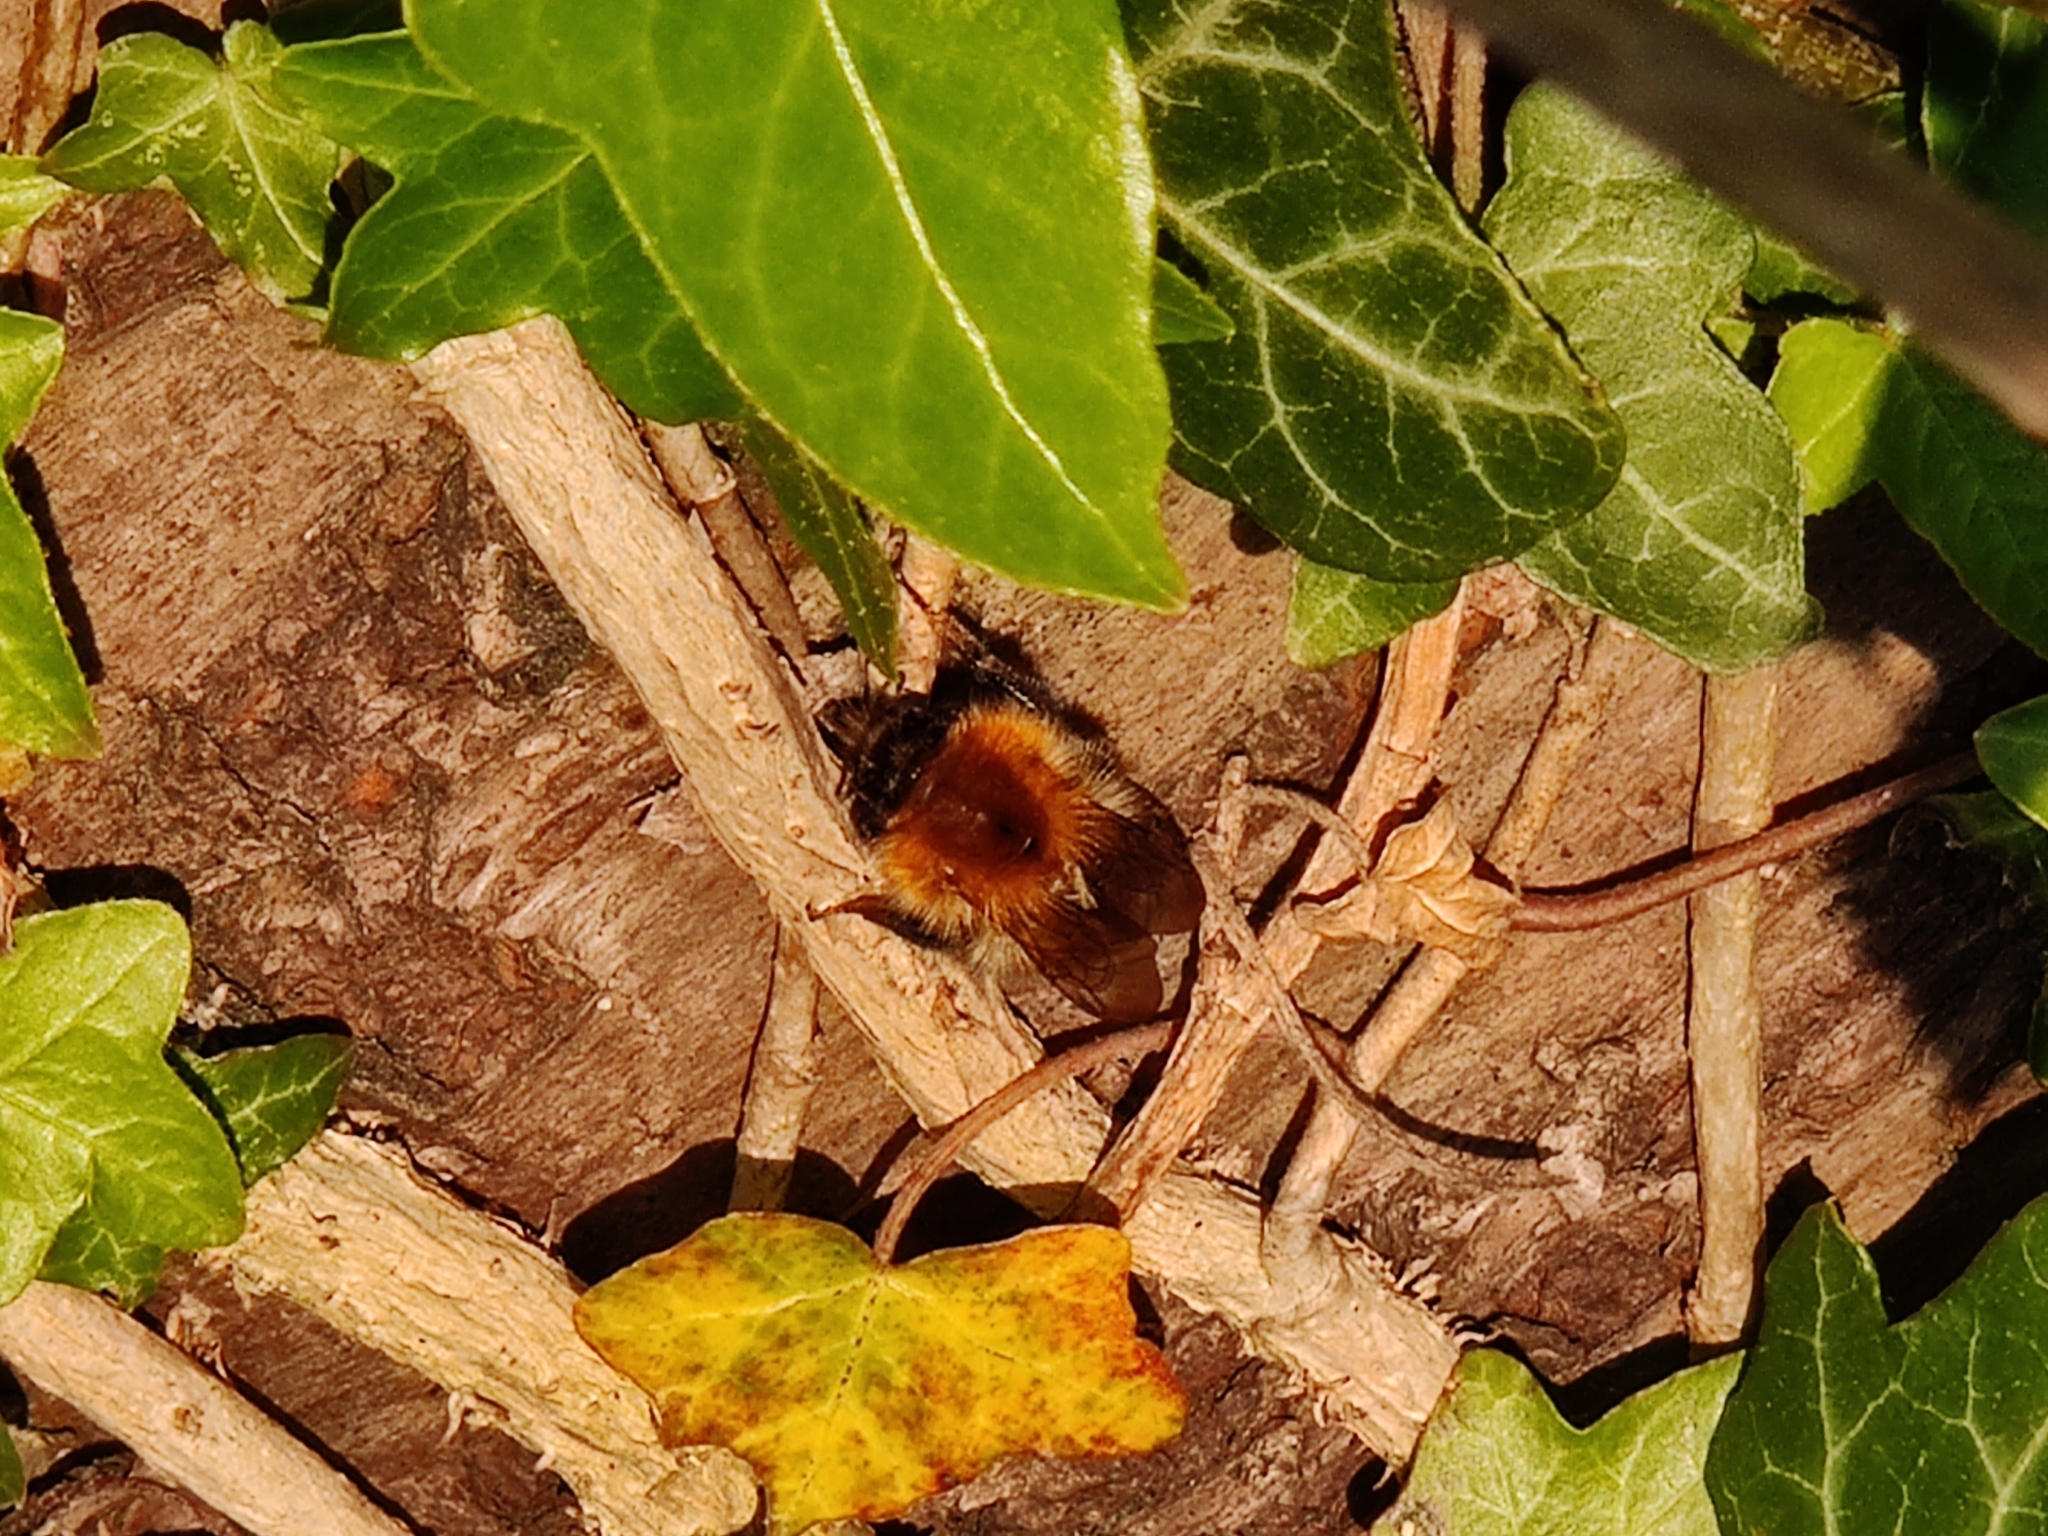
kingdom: Animalia
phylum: Arthropoda
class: Insecta
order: Hymenoptera
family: Apidae
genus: Bombus
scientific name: Bombus pascuorum
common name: Common carder bee
